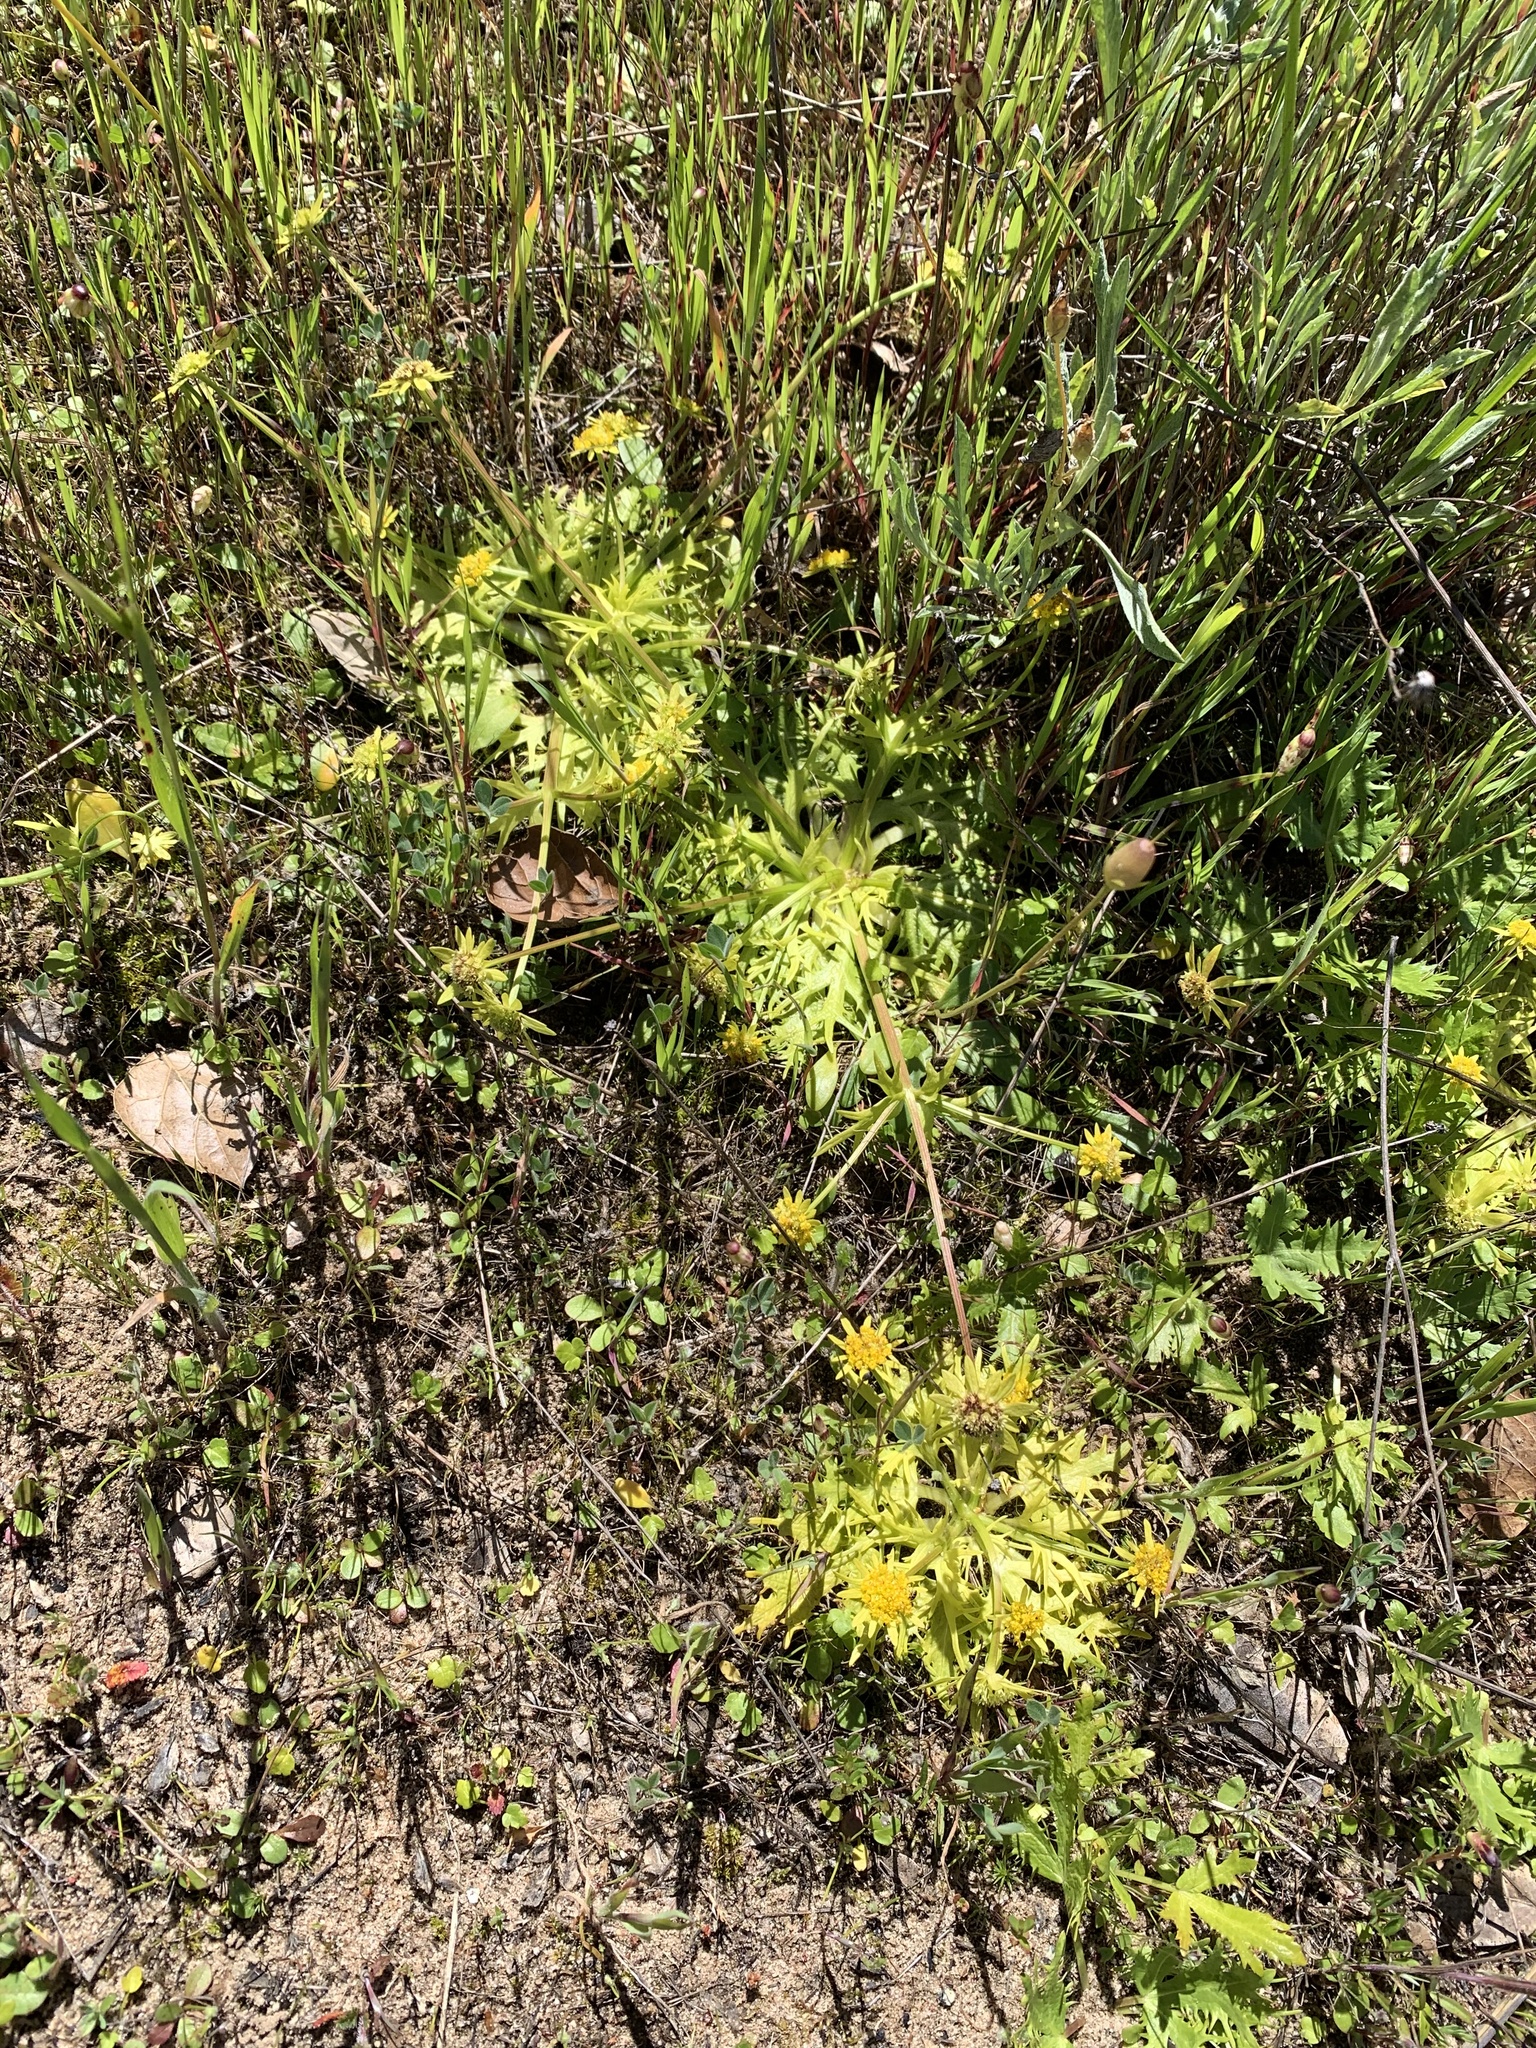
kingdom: Plantae
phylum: Tracheophyta
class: Magnoliopsida
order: Apiales
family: Apiaceae
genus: Sanicula
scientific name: Sanicula arctopoides
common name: Footsteps-of-spring
